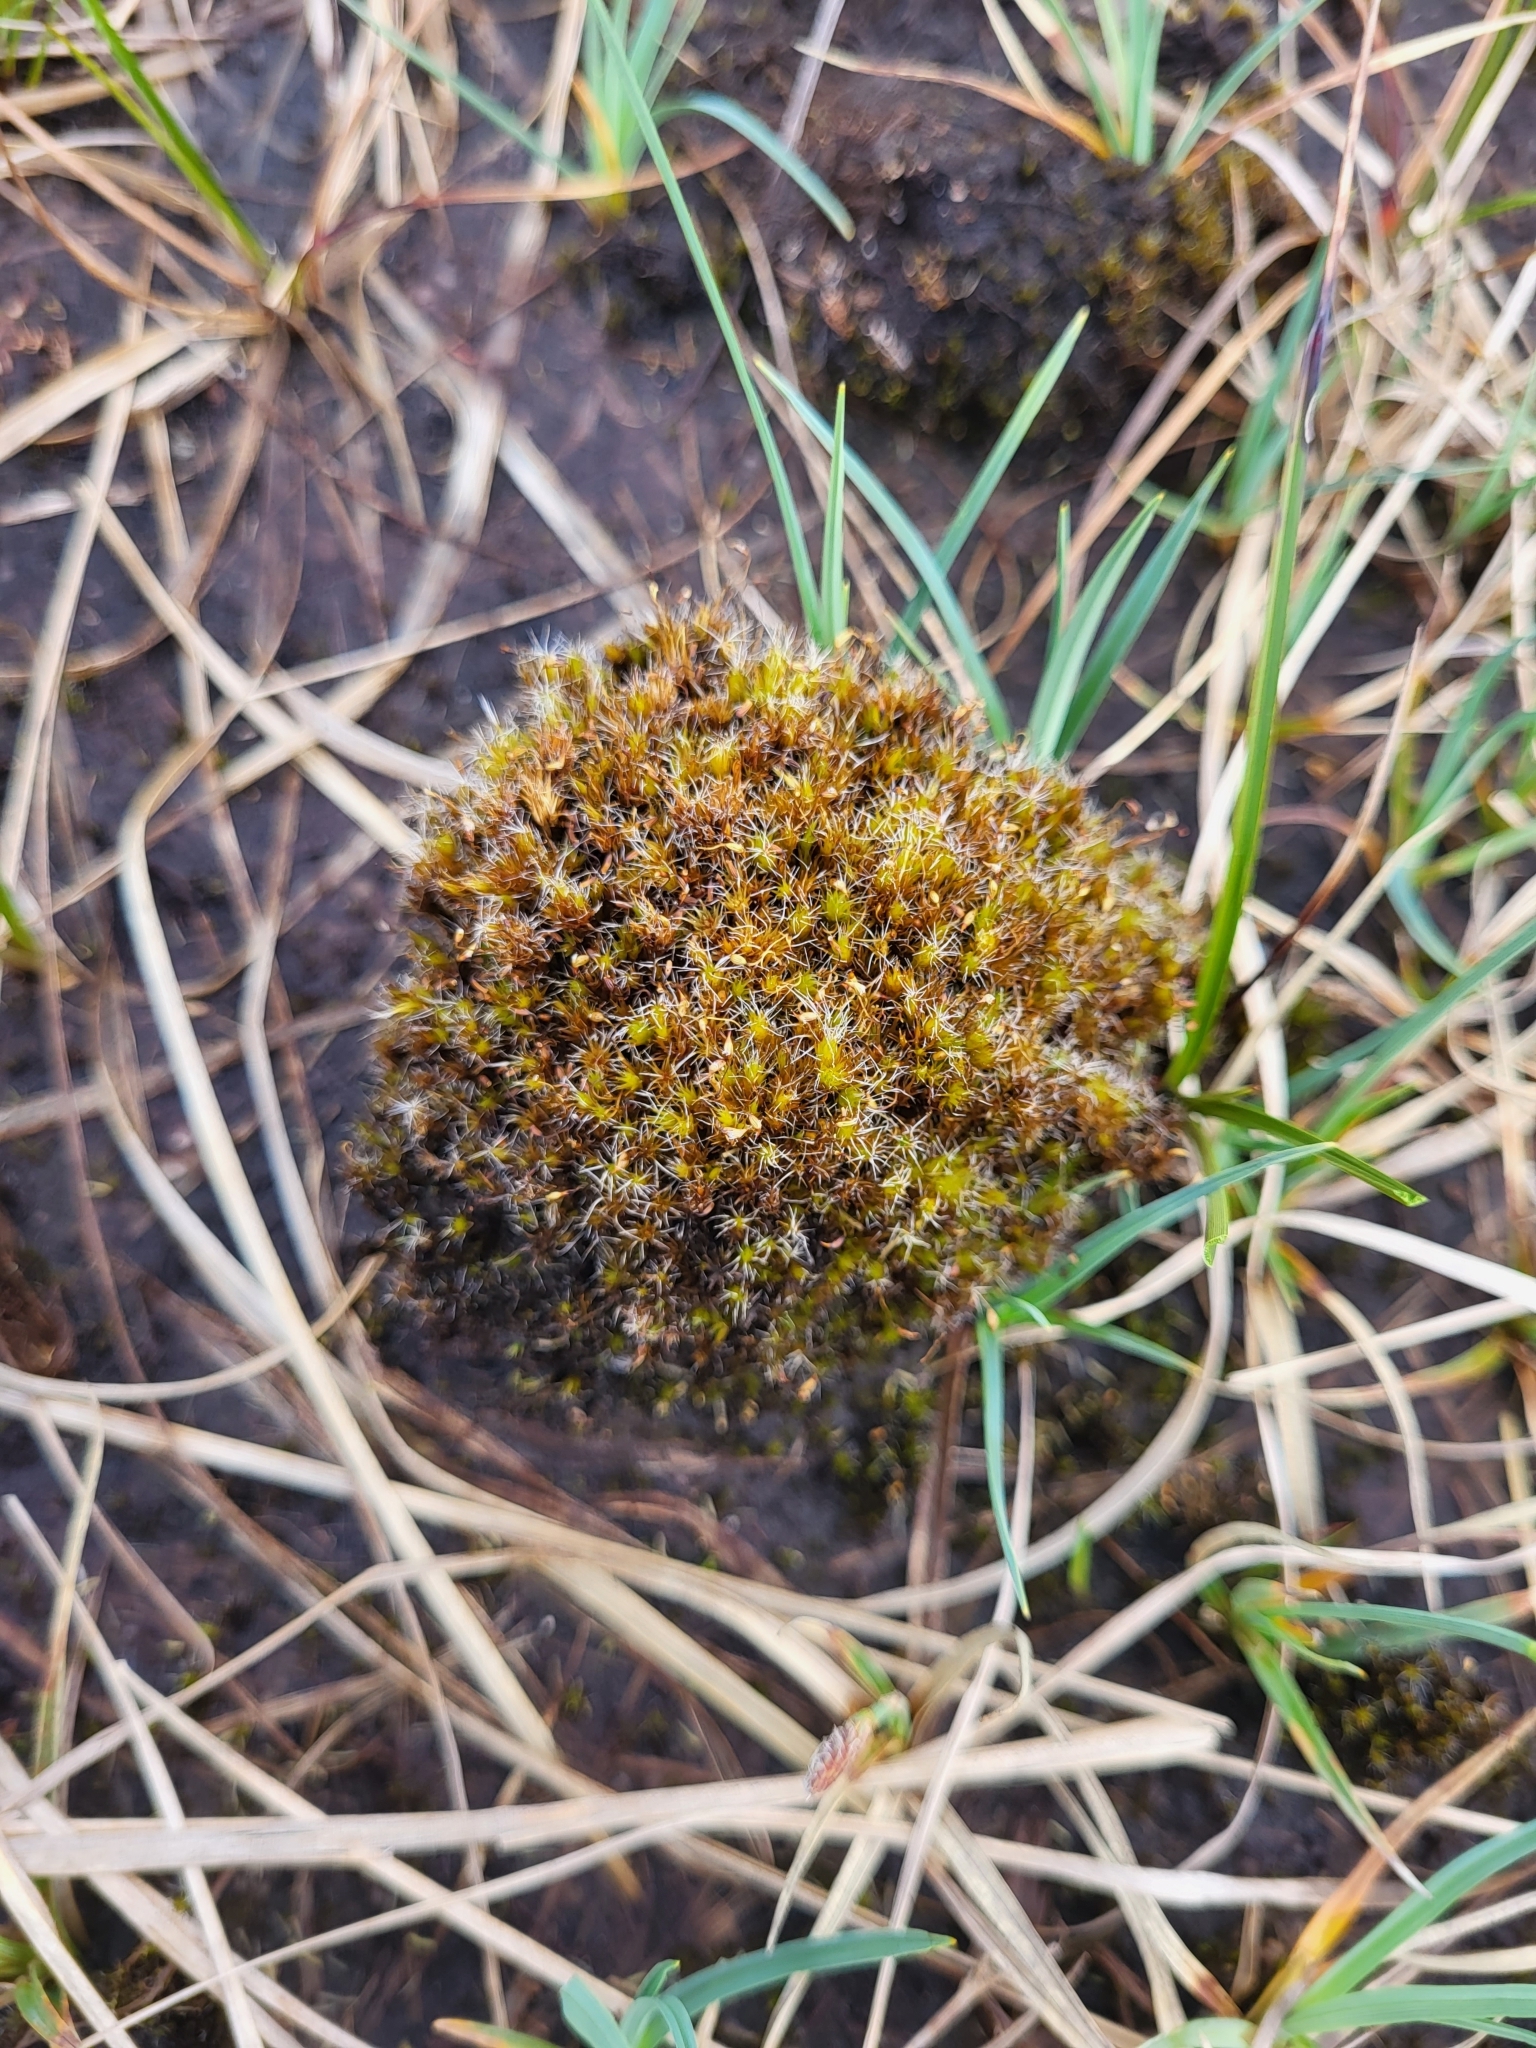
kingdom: Plantae
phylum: Bryophyta
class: Bryopsida
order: Dicranales
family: Leucobryaceae
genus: Campylopus
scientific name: Campylopus introflexus
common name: Heath star moss
